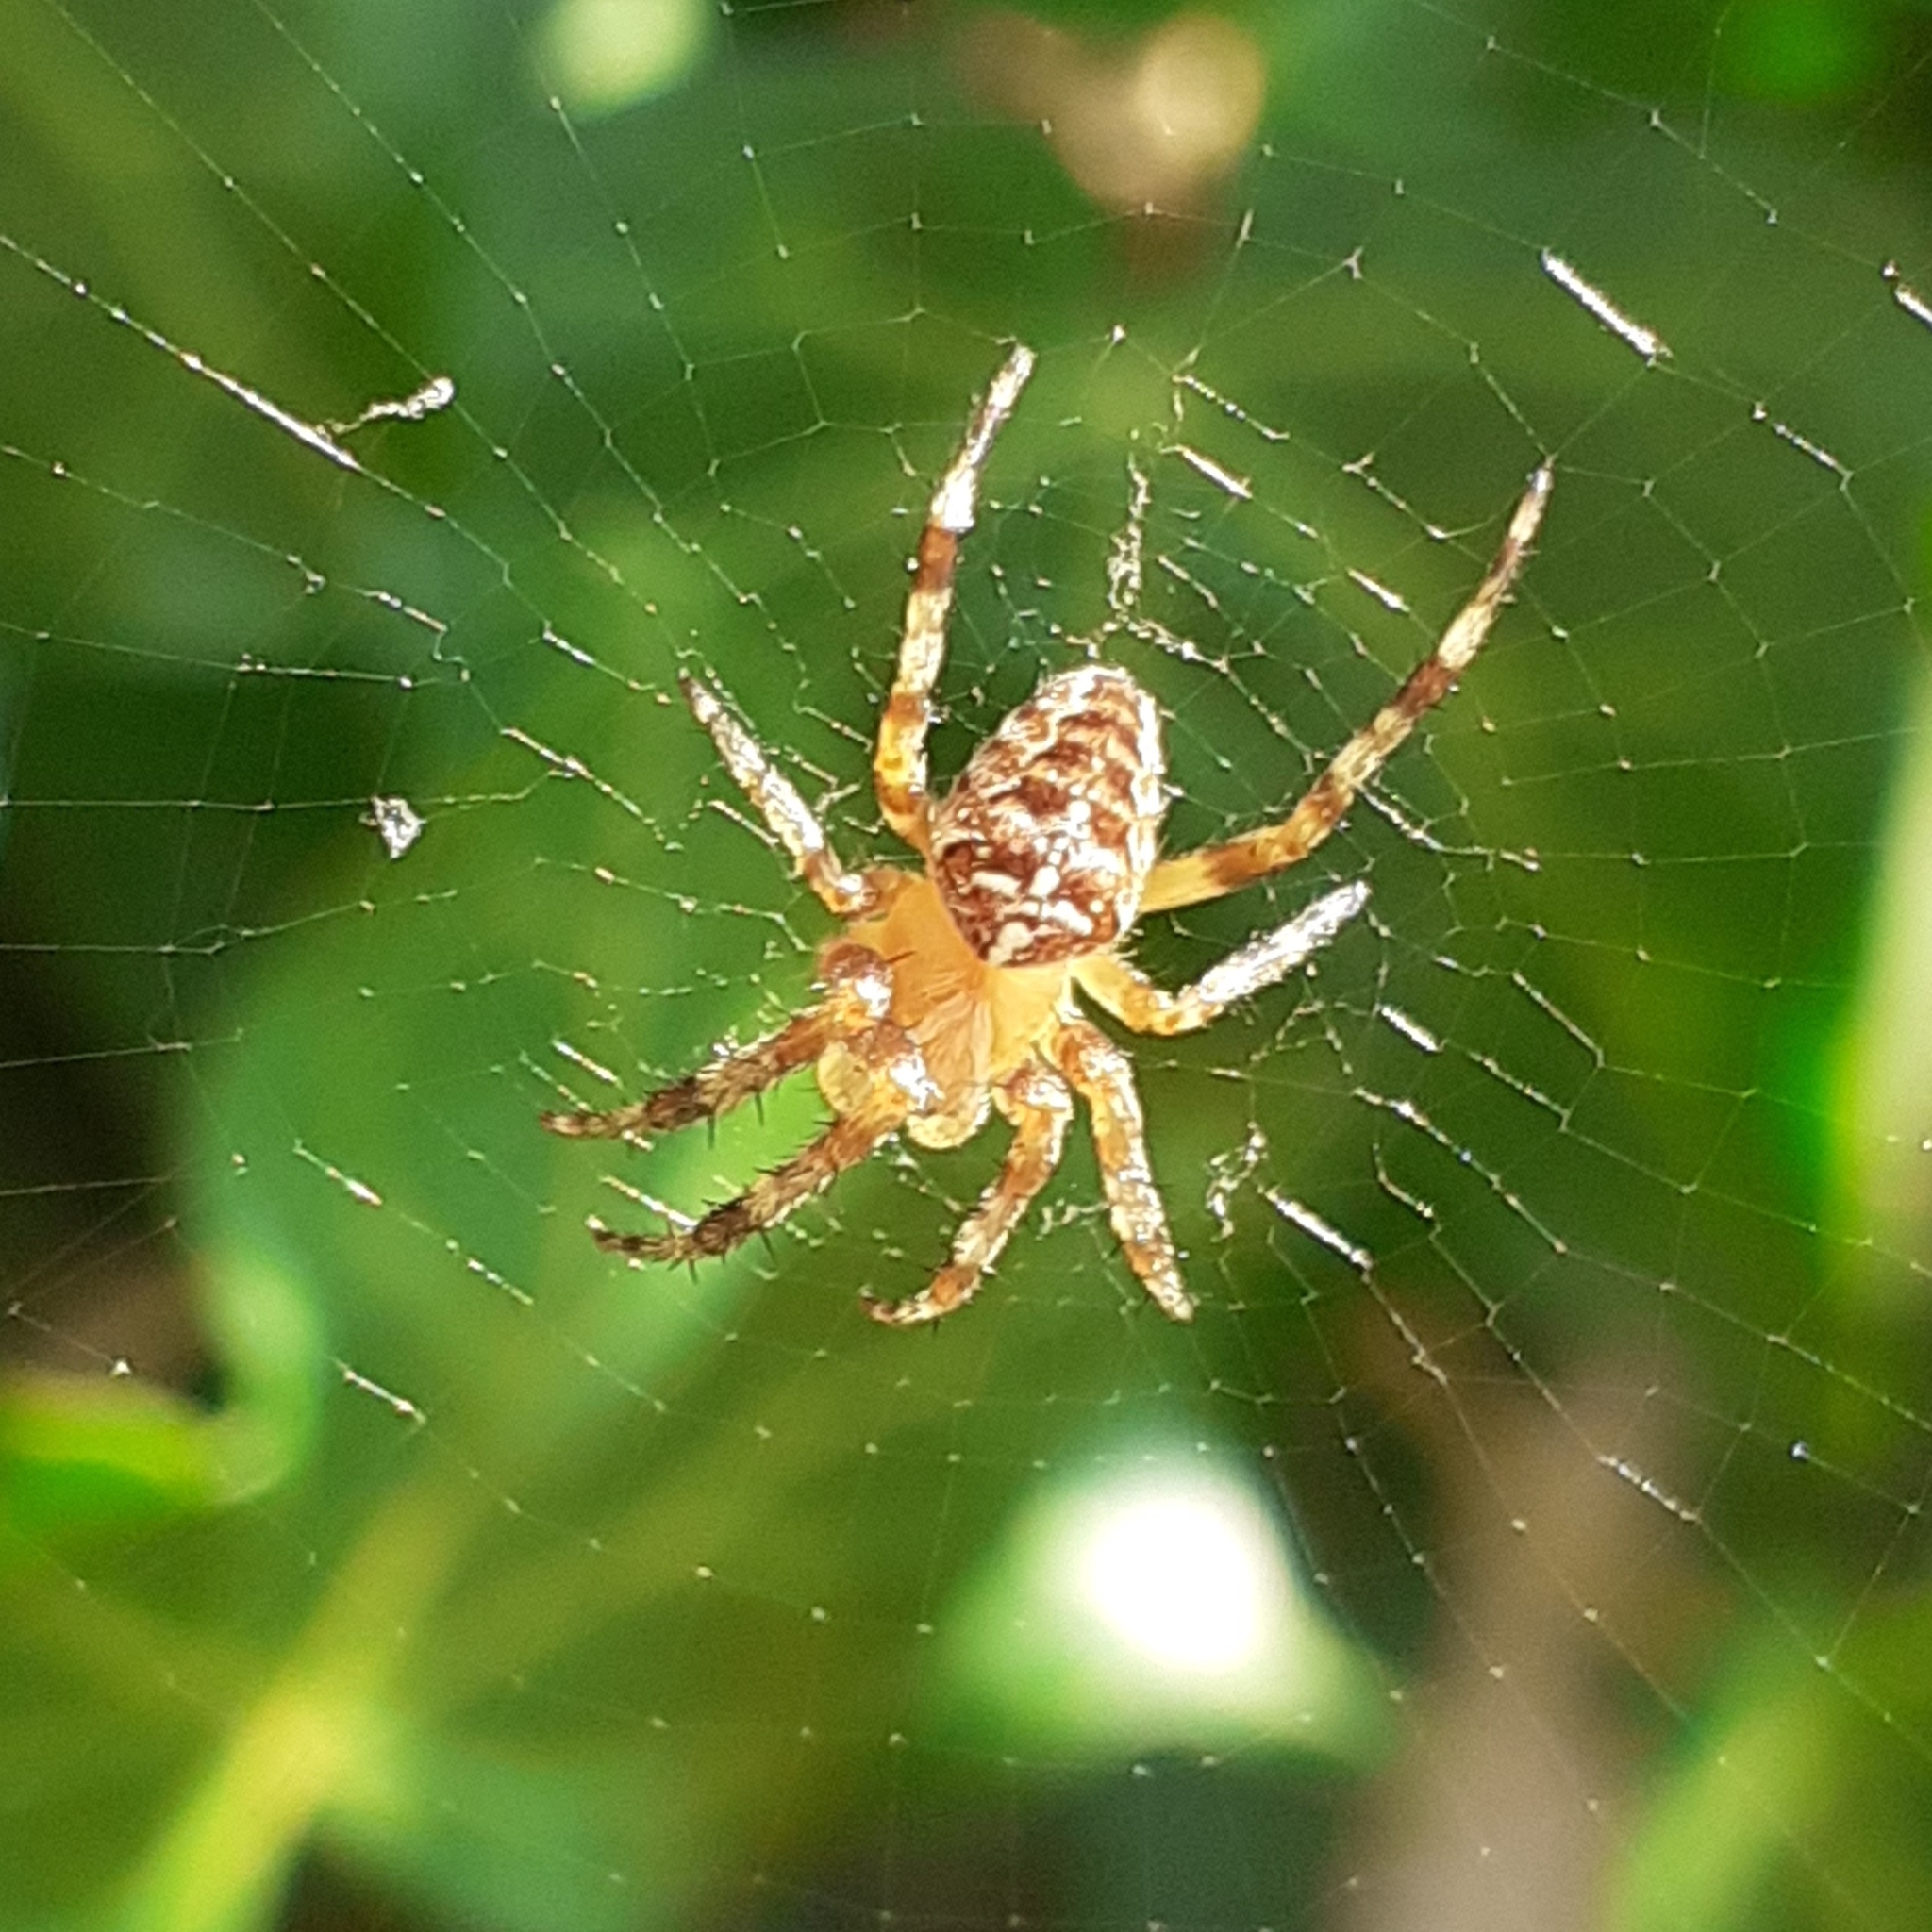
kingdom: Animalia
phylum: Arthropoda
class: Arachnida
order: Araneae
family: Araneidae
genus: Araneus
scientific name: Araneus diadematus
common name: Cross orbweaver
